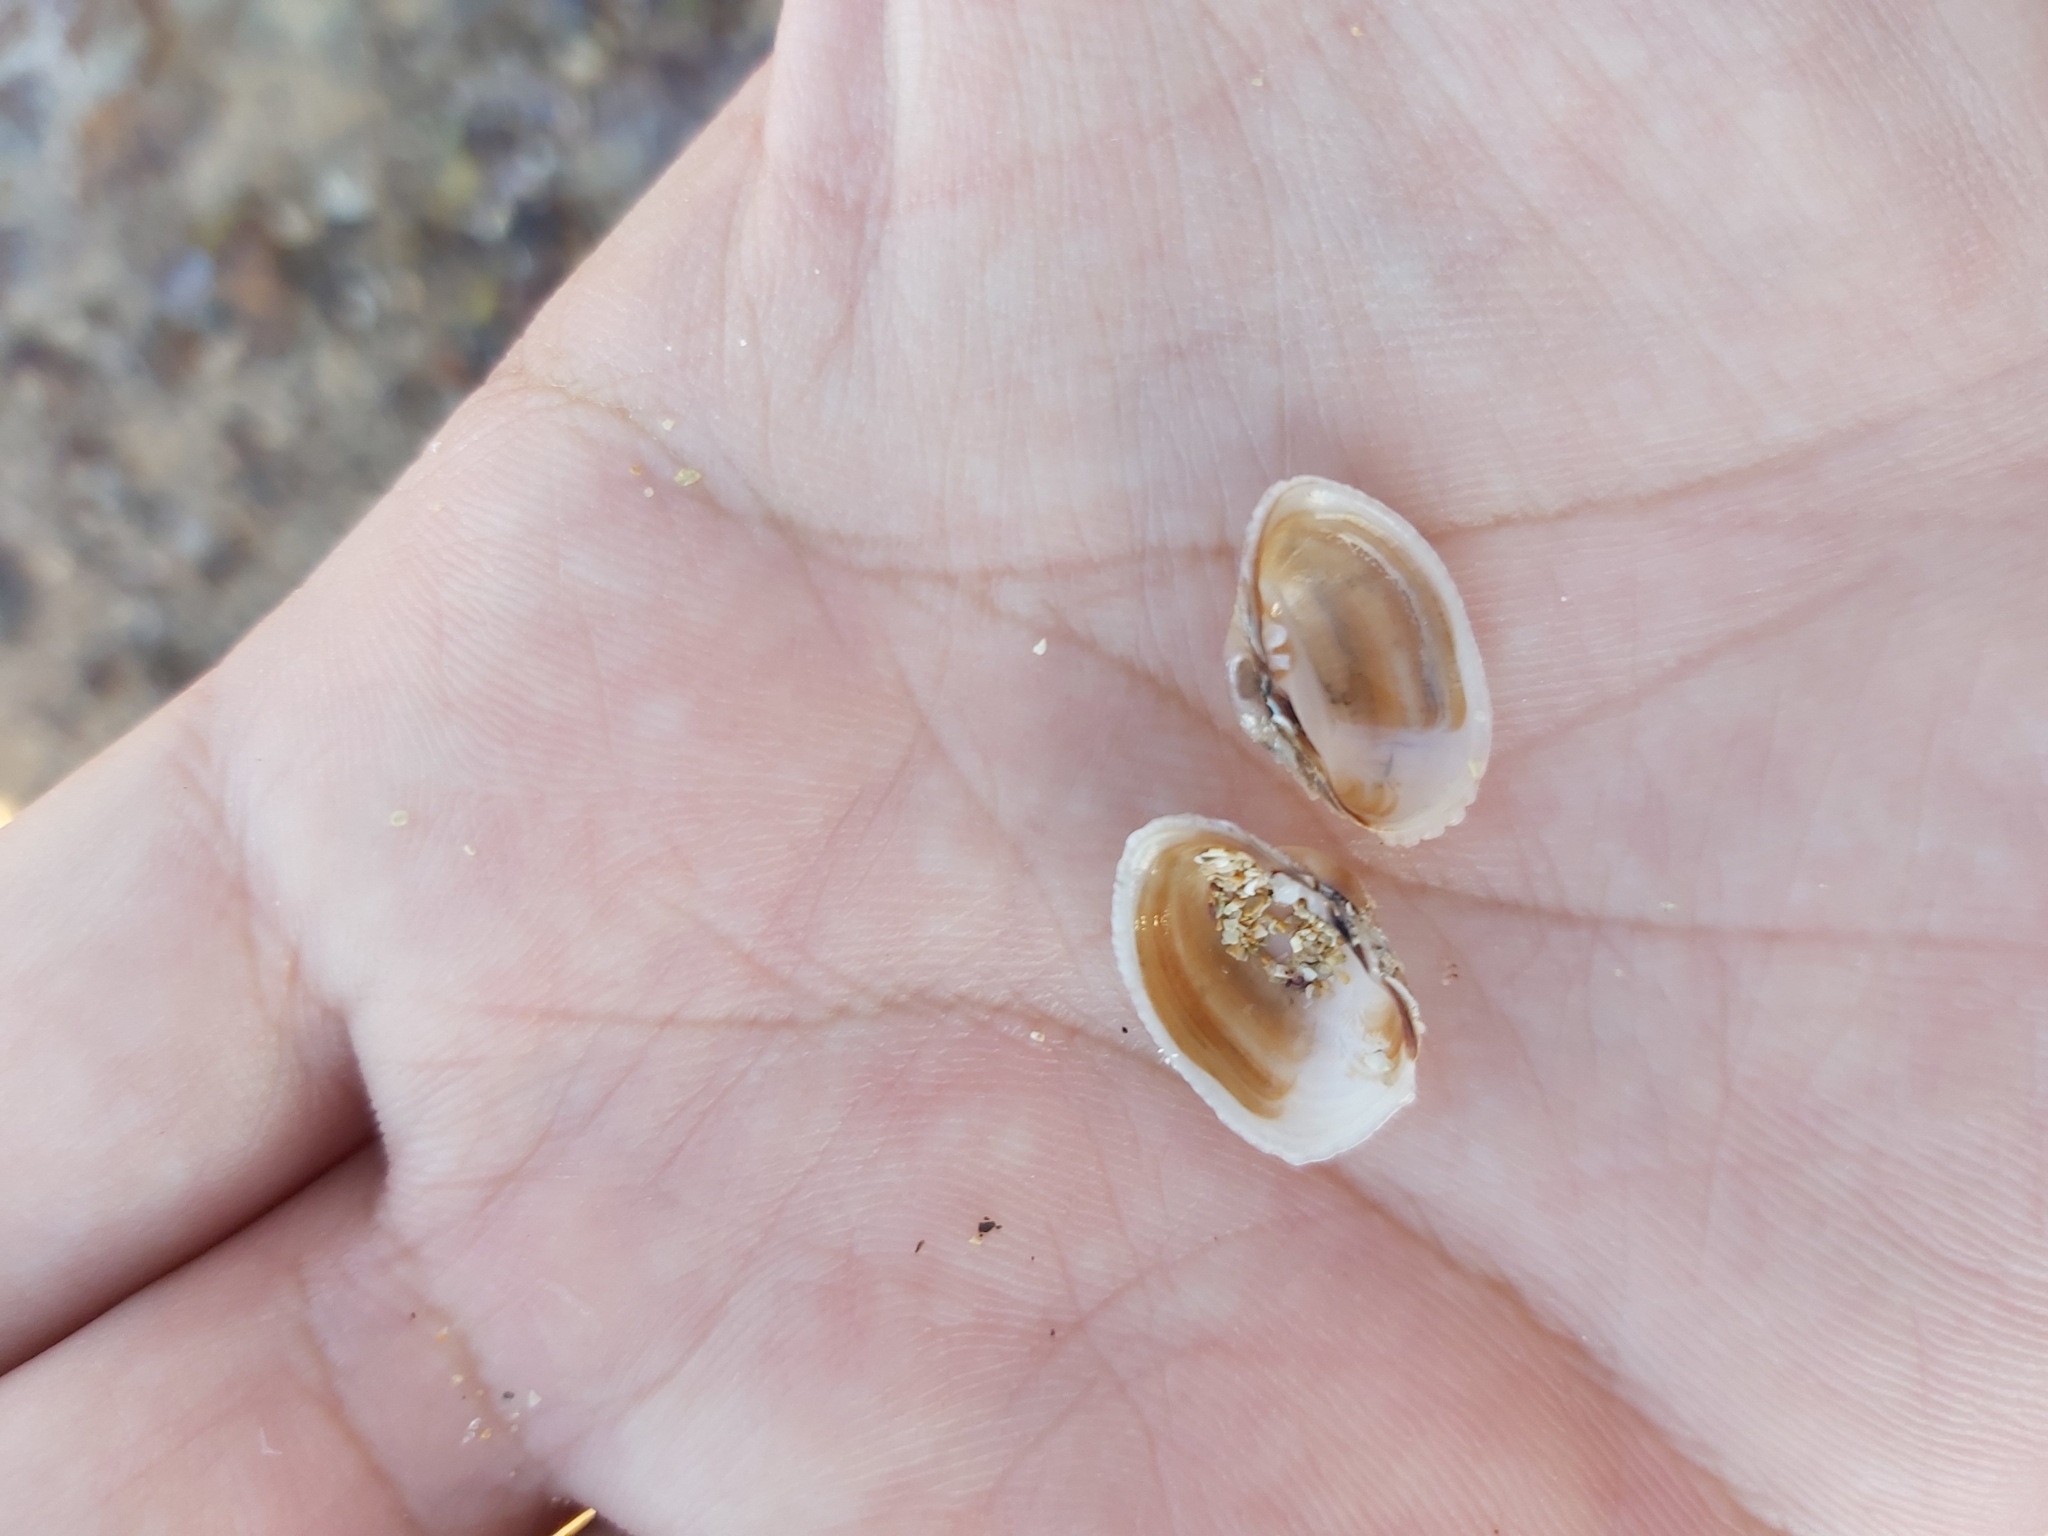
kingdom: Animalia
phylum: Mollusca
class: Bivalvia
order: Venerida
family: Veneridae
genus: Irus
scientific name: Irus crenatus
